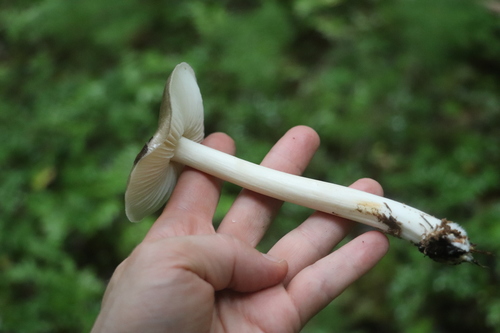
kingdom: Fungi
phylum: Basidiomycota
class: Agaricomycetes
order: Agaricales
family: Tricholomataceae
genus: Megacollybia
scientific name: Megacollybia platyphylla
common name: Whitelaced shank
